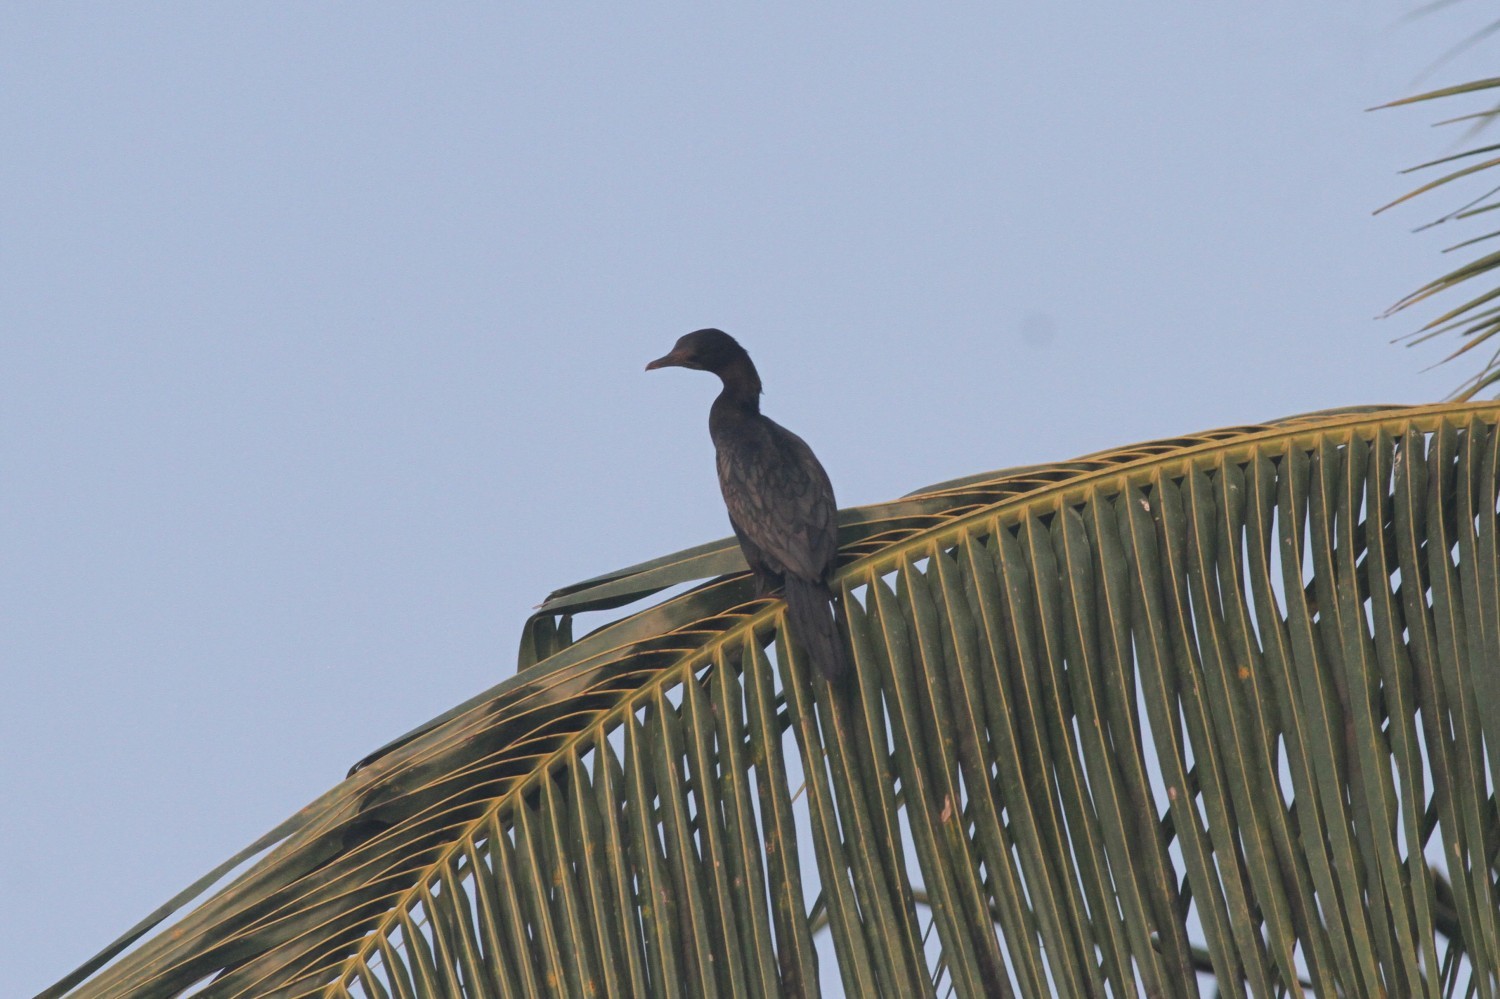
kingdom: Animalia
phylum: Chordata
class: Aves
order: Suliformes
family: Phalacrocoracidae
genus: Microcarbo
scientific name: Microcarbo niger
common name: Little cormorant
